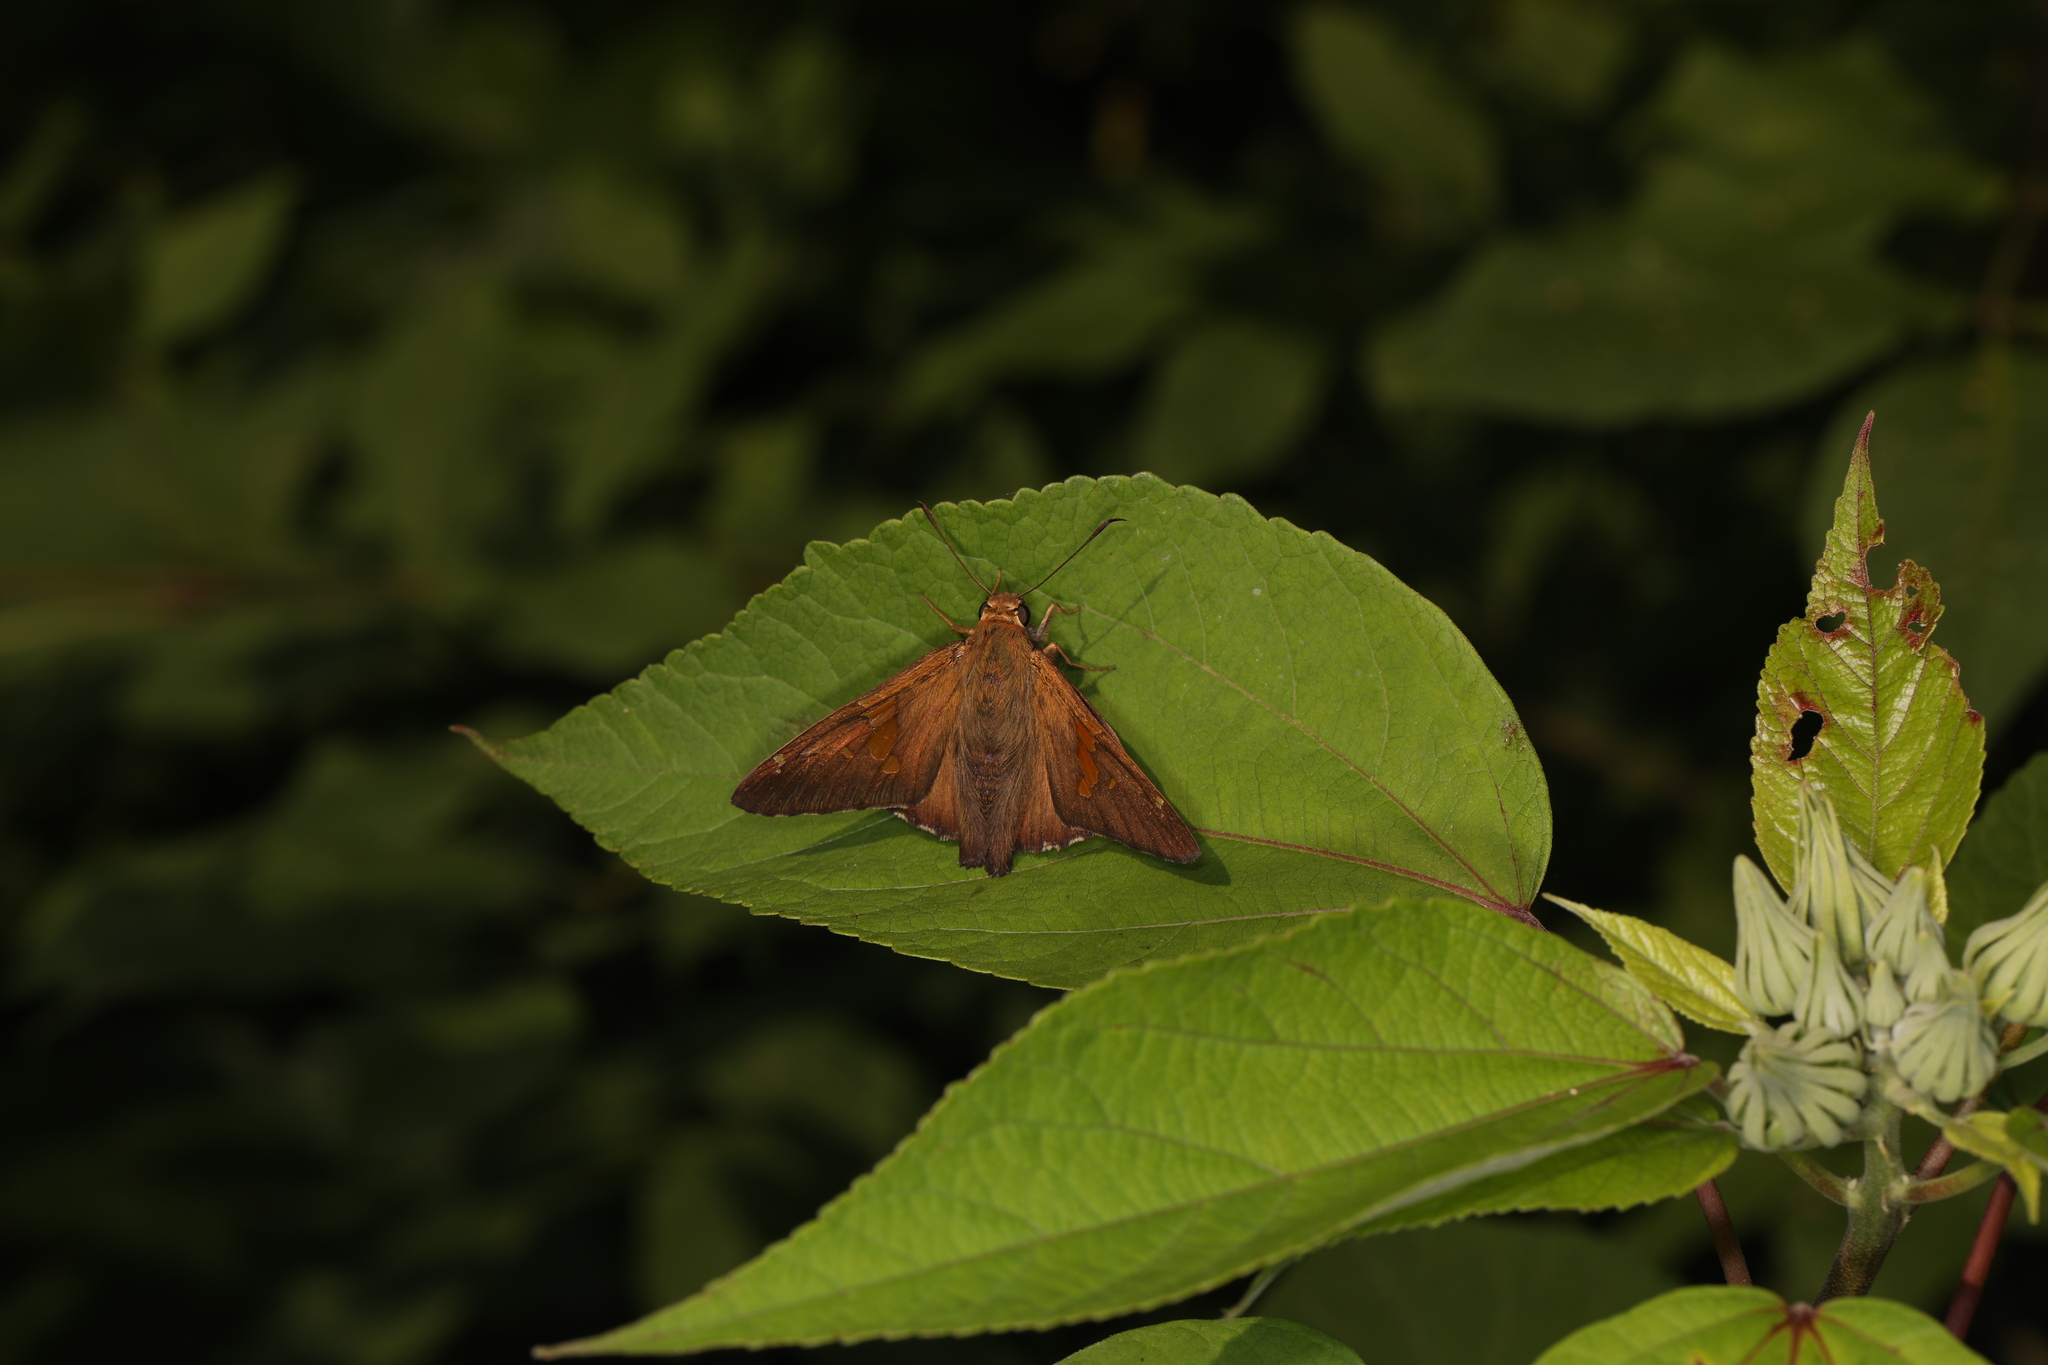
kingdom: Animalia
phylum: Arthropoda
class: Insecta
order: Lepidoptera
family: Hesperiidae
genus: Epargyreus
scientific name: Epargyreus clarus
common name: Silver-spotted skipper
